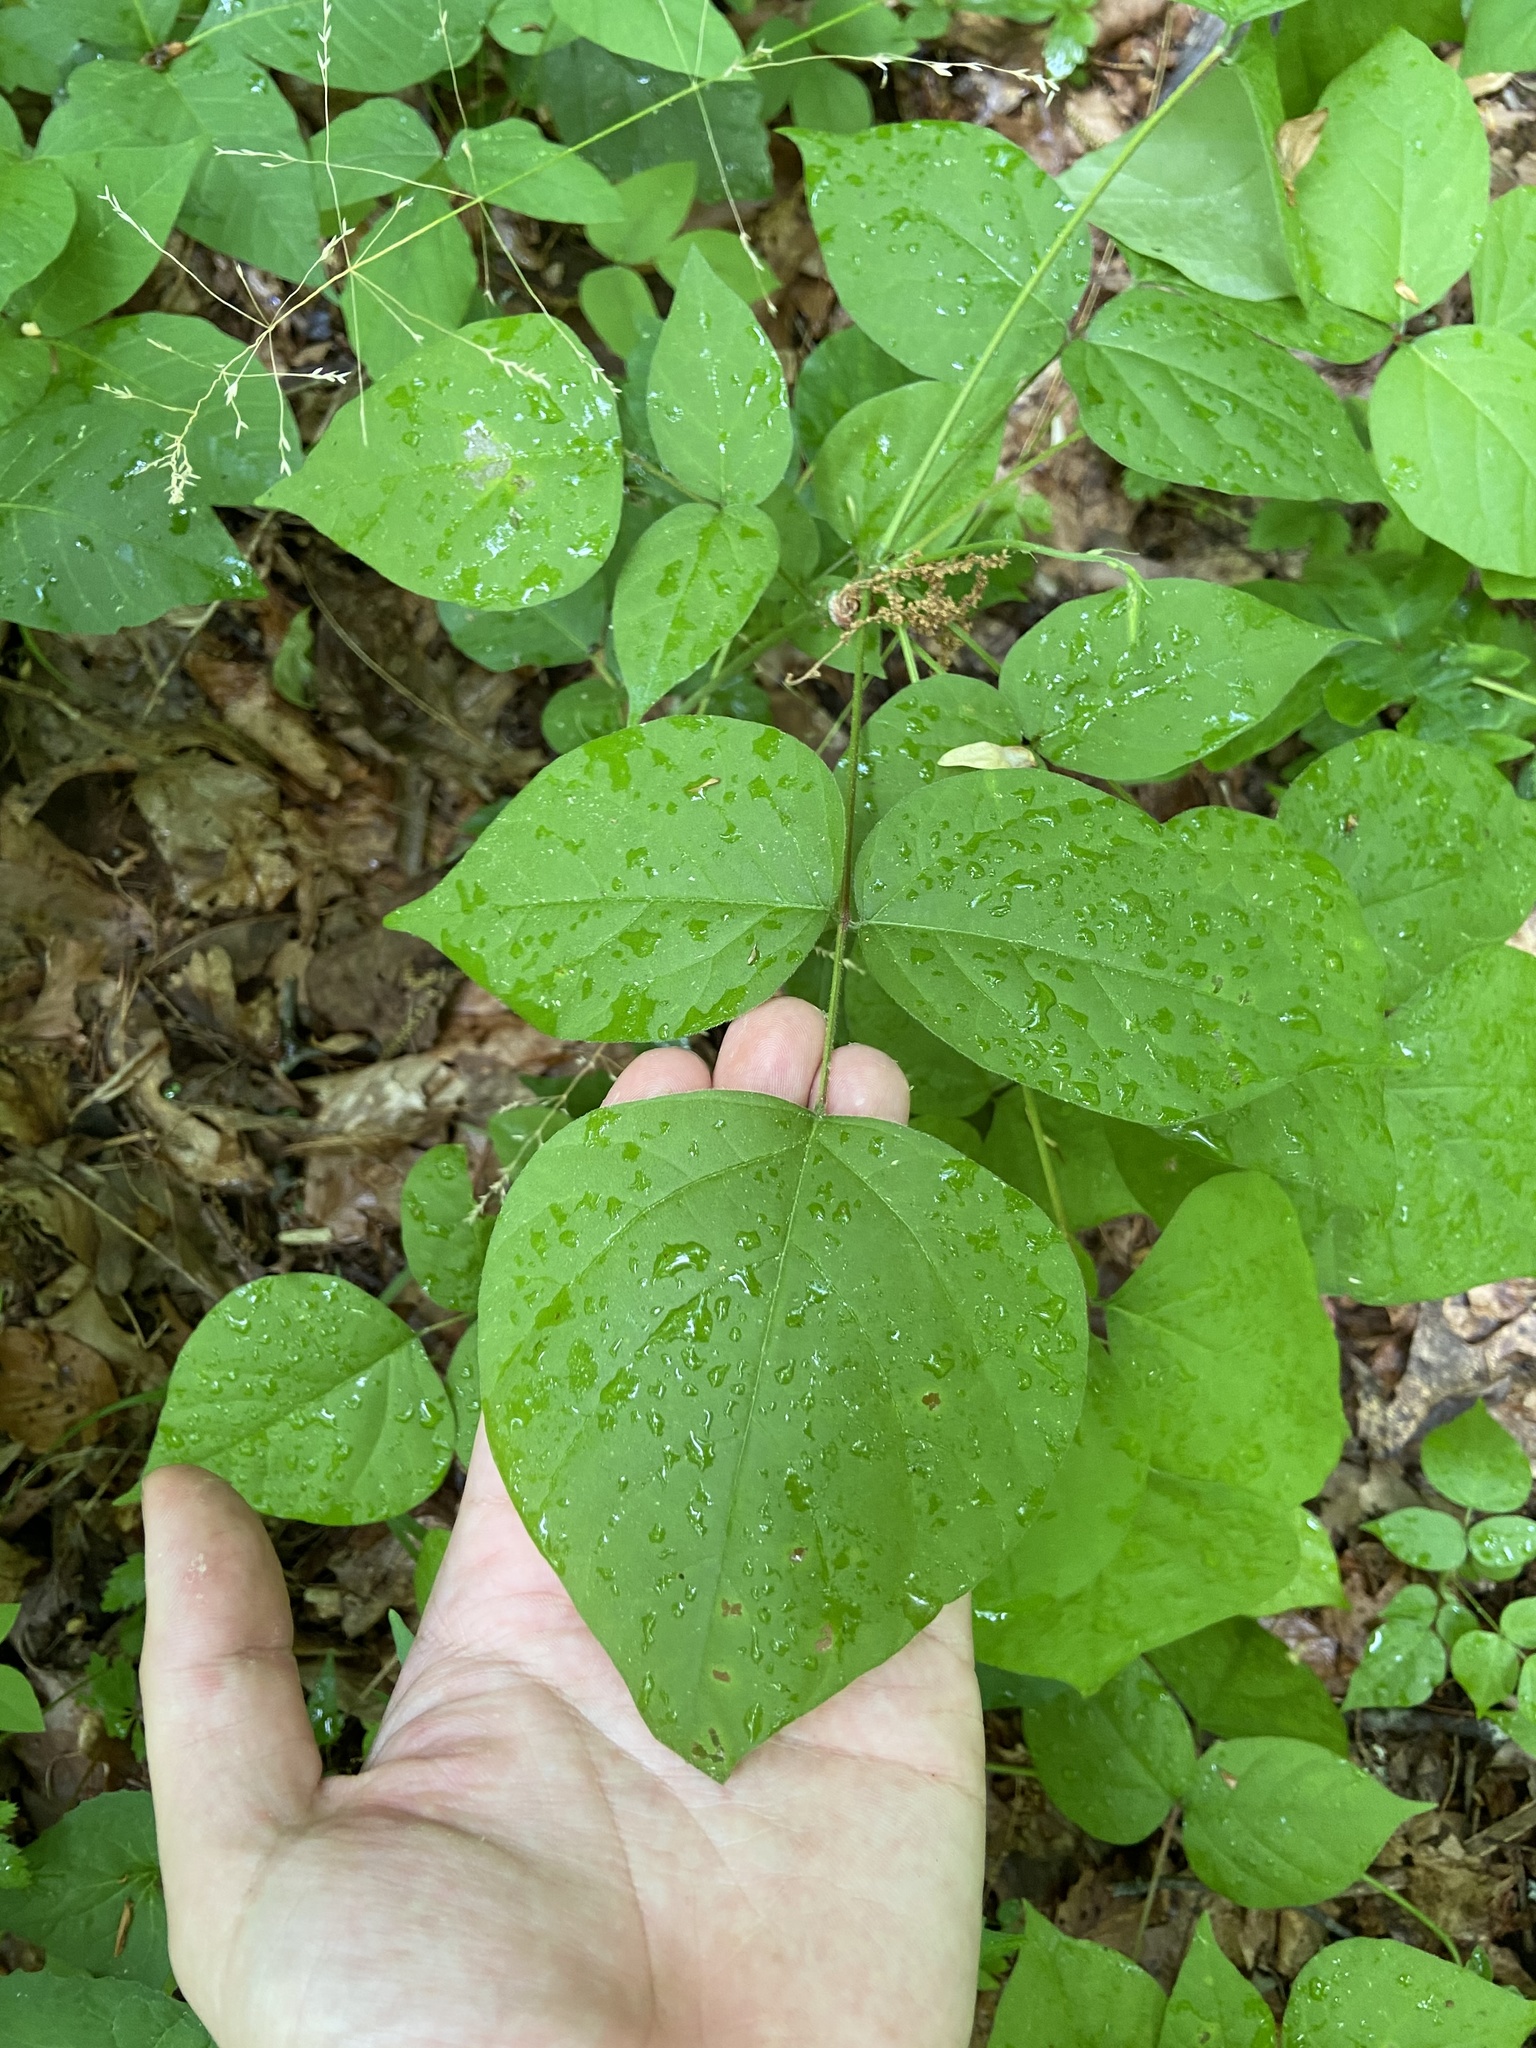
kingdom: Plantae
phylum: Tracheophyta
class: Magnoliopsida
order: Fabales
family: Fabaceae
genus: Hylodesmum
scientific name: Hylodesmum glutinosum
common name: Clustered-leaved tick-trefoil
